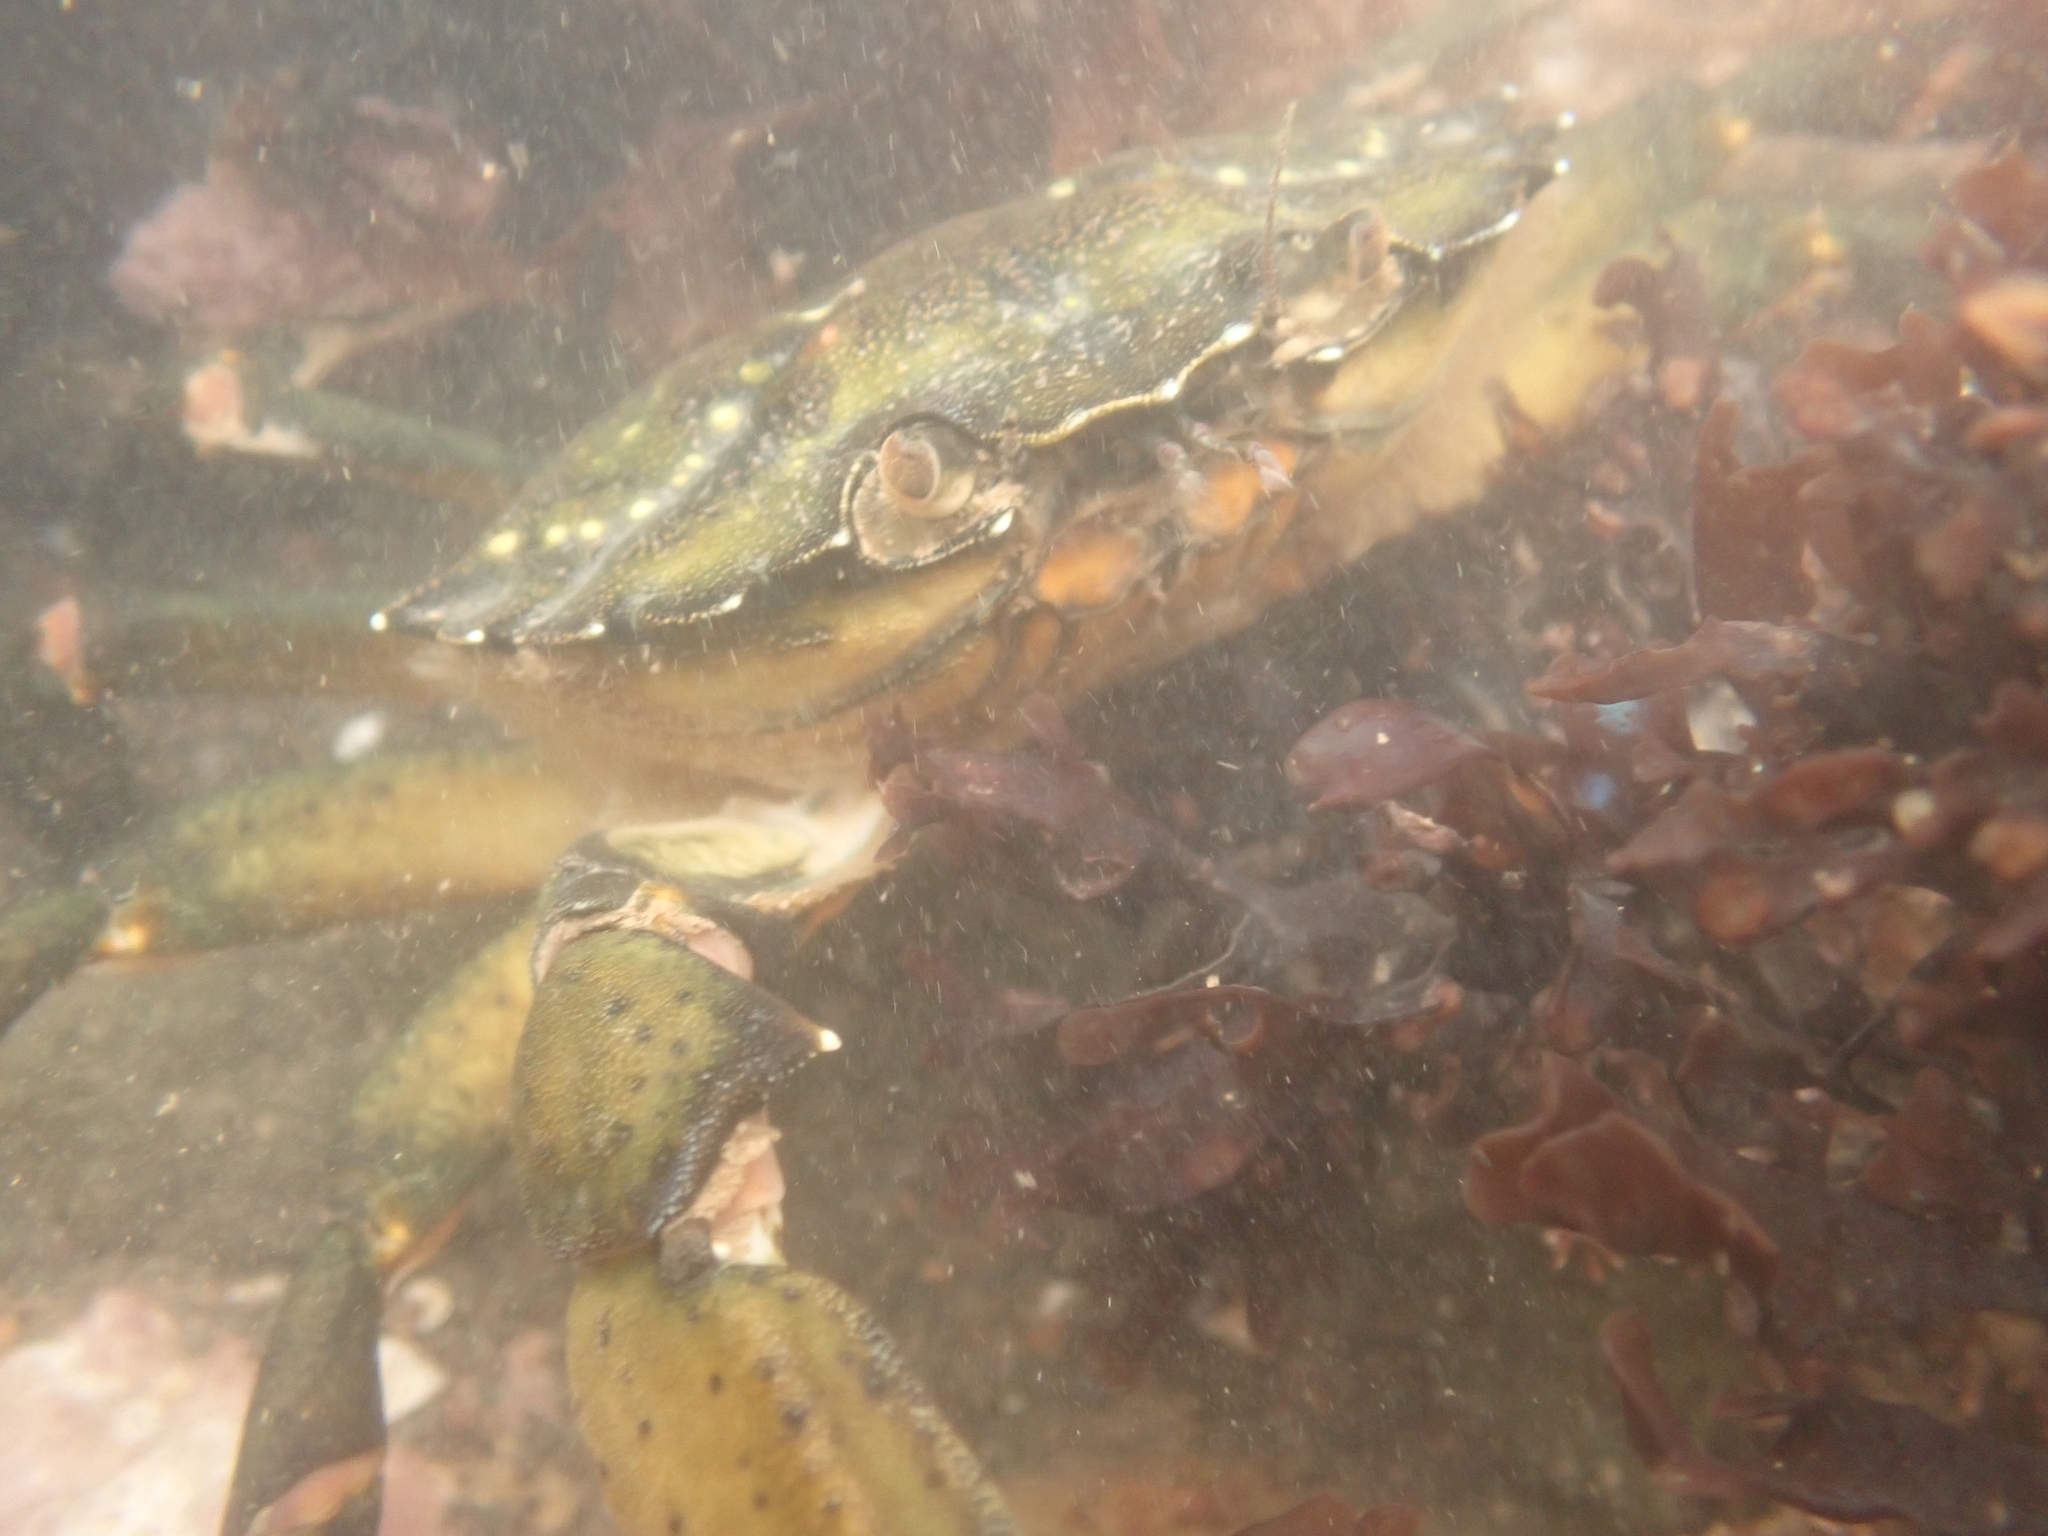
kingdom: Animalia
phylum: Arthropoda
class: Malacostraca
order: Decapoda
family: Carcinidae
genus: Carcinus
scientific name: Carcinus maenas
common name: European green crab
